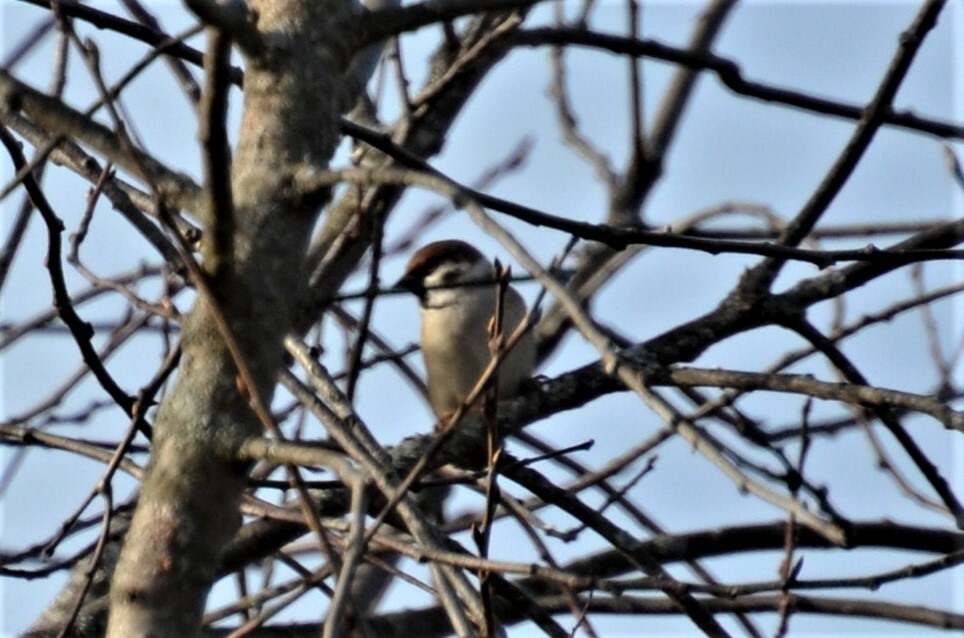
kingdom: Animalia
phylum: Chordata
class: Aves
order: Passeriformes
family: Passeridae
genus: Passer
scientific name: Passer montanus
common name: Eurasian tree sparrow
